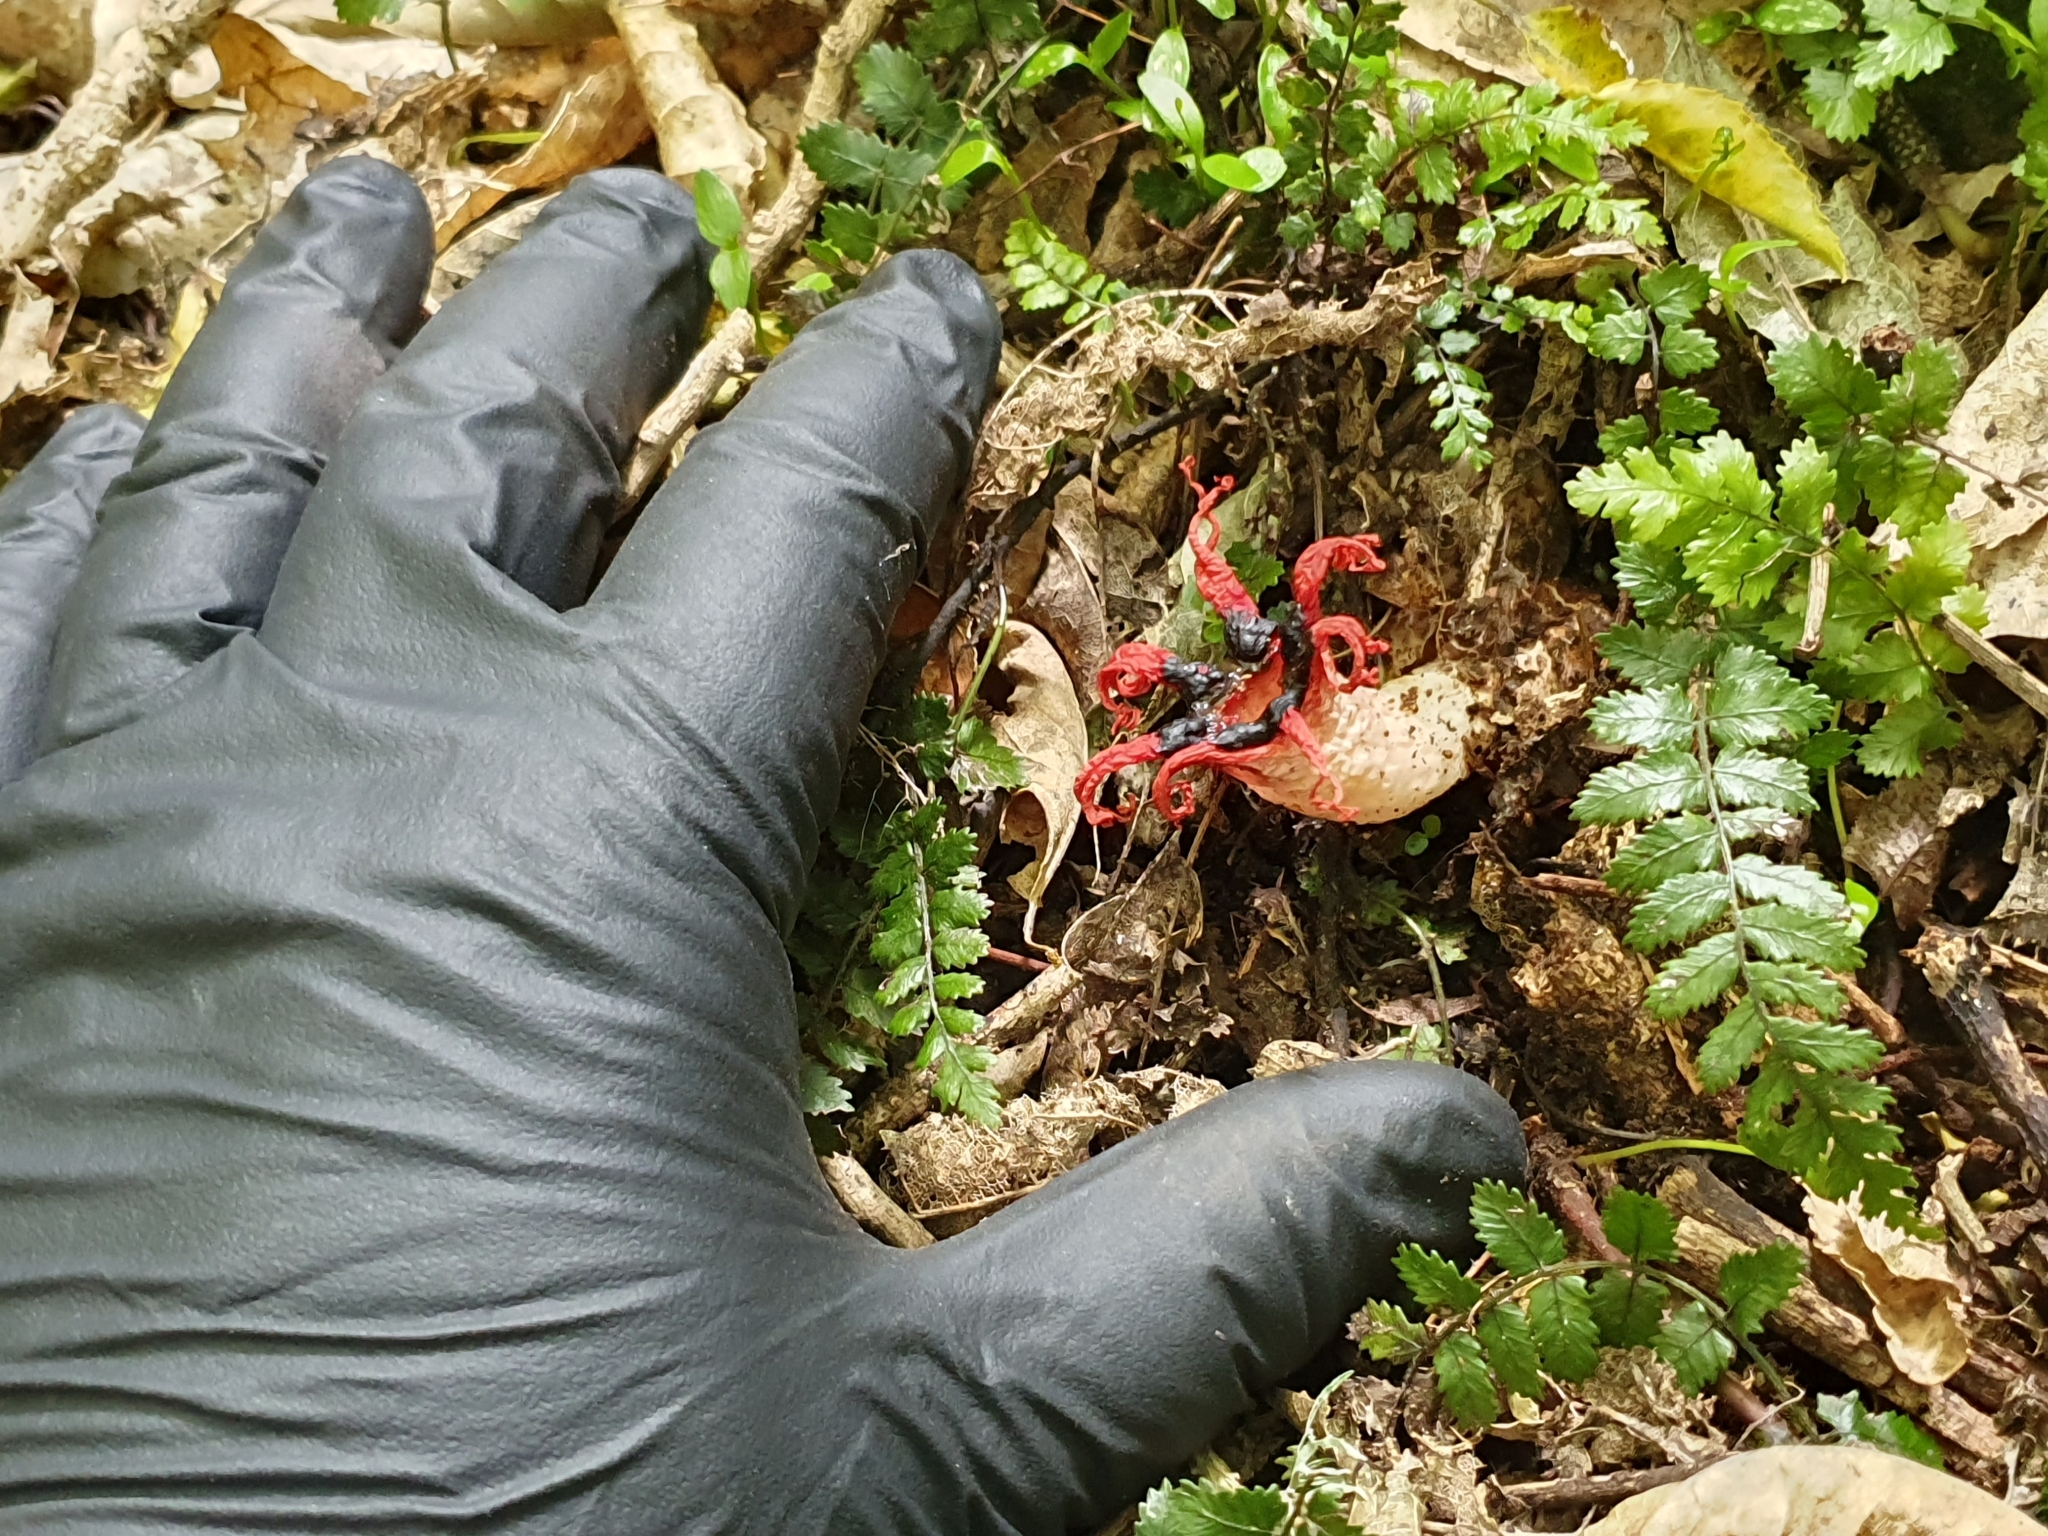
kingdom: Fungi
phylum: Basidiomycota
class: Agaricomycetes
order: Phallales
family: Phallaceae
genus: Aseroe
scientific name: Aseroe rubra
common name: Starfish fungus
